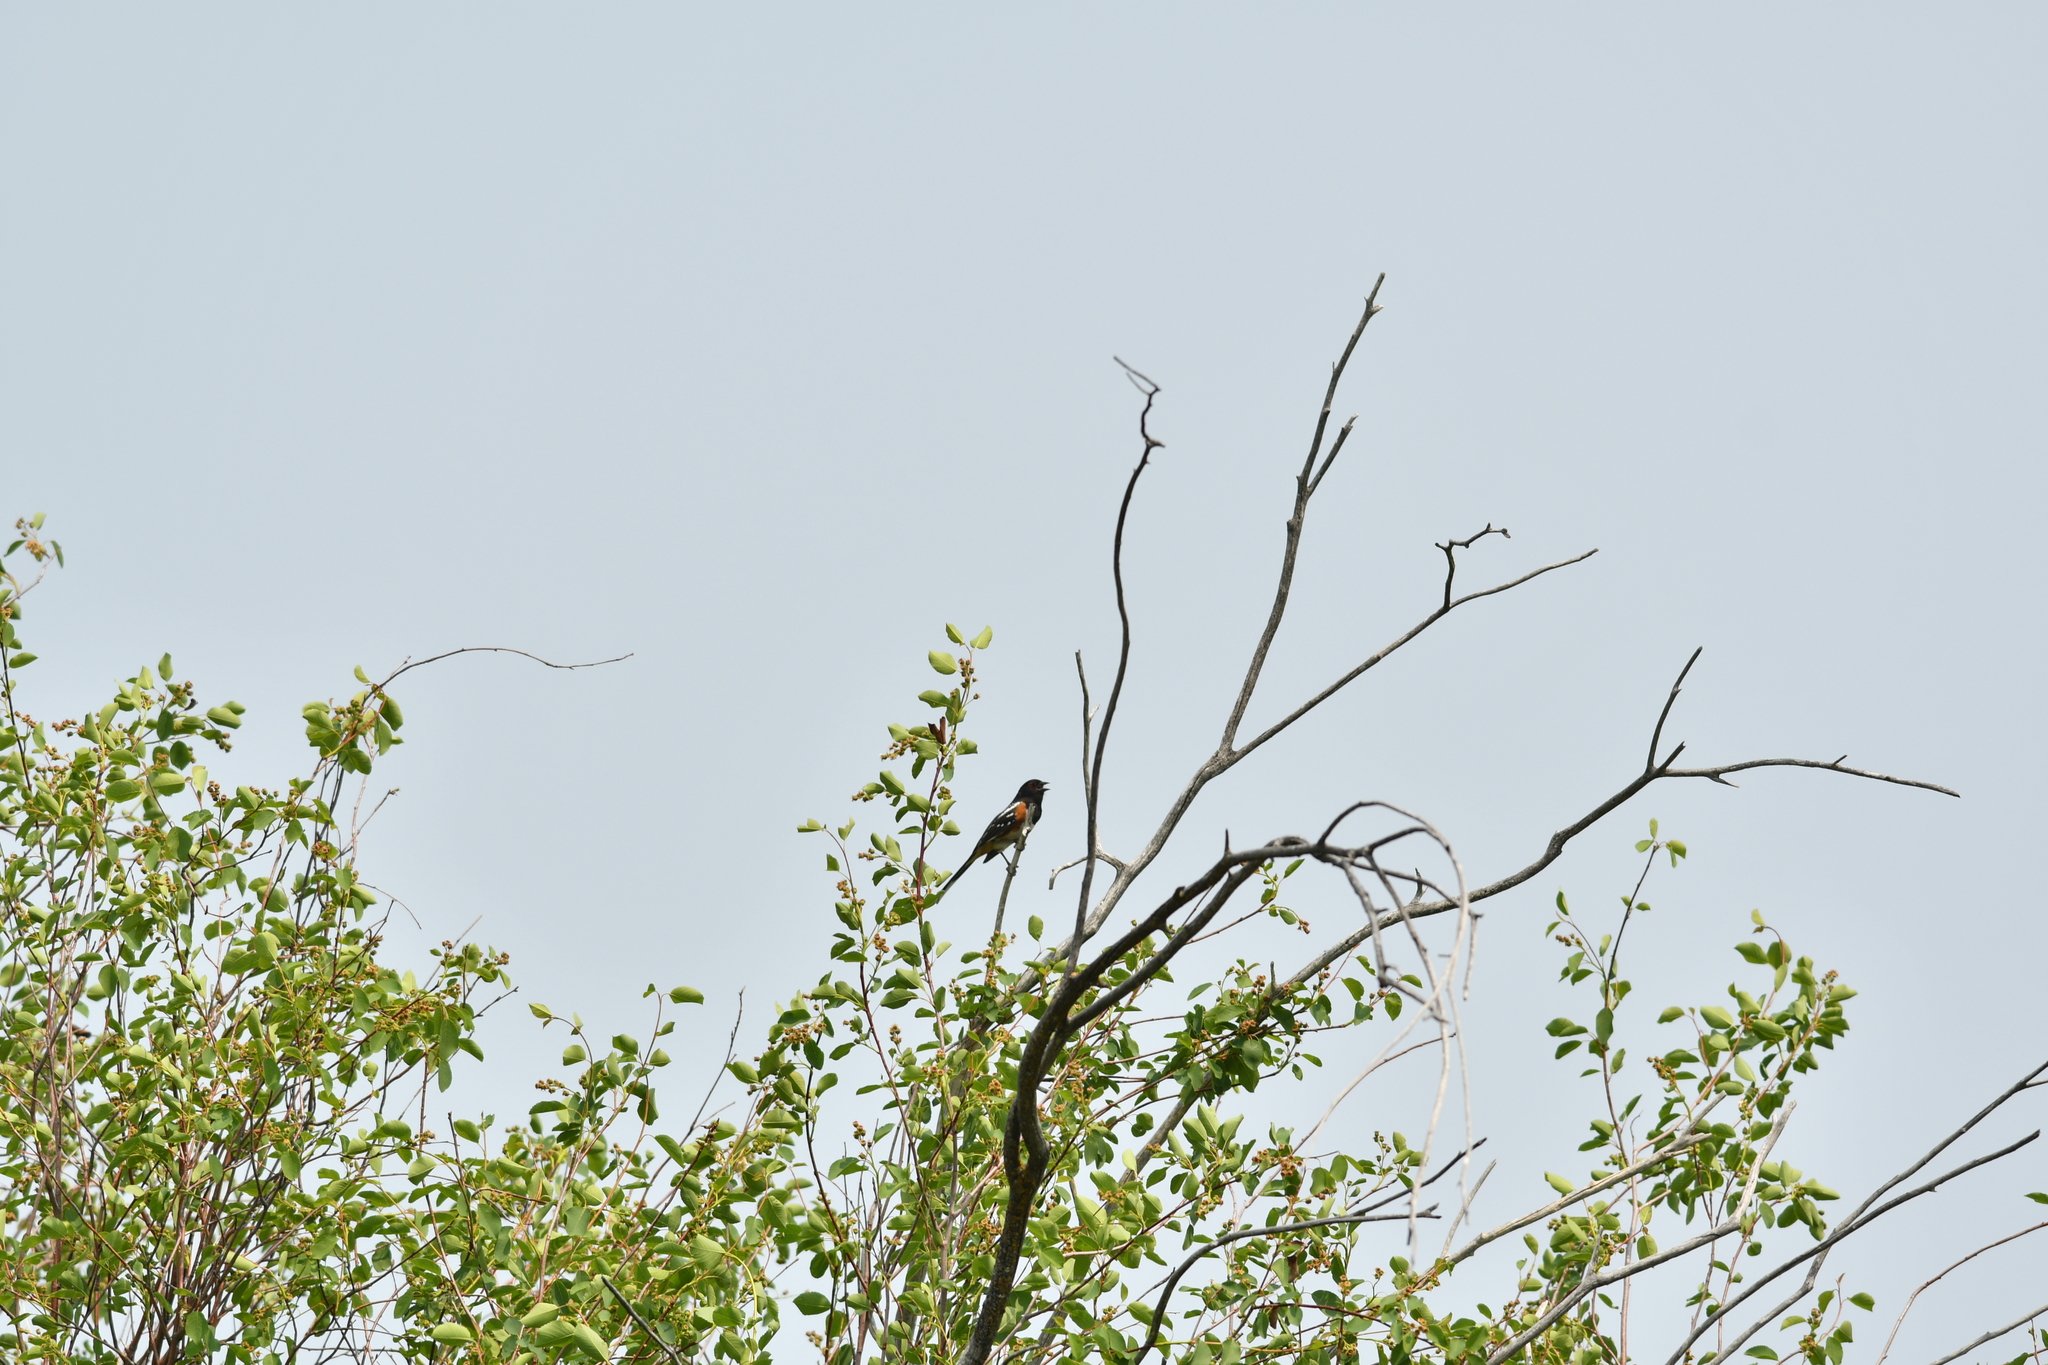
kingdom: Animalia
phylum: Chordata
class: Aves
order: Passeriformes
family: Passerellidae
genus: Pipilo
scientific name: Pipilo maculatus
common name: Spotted towhee
